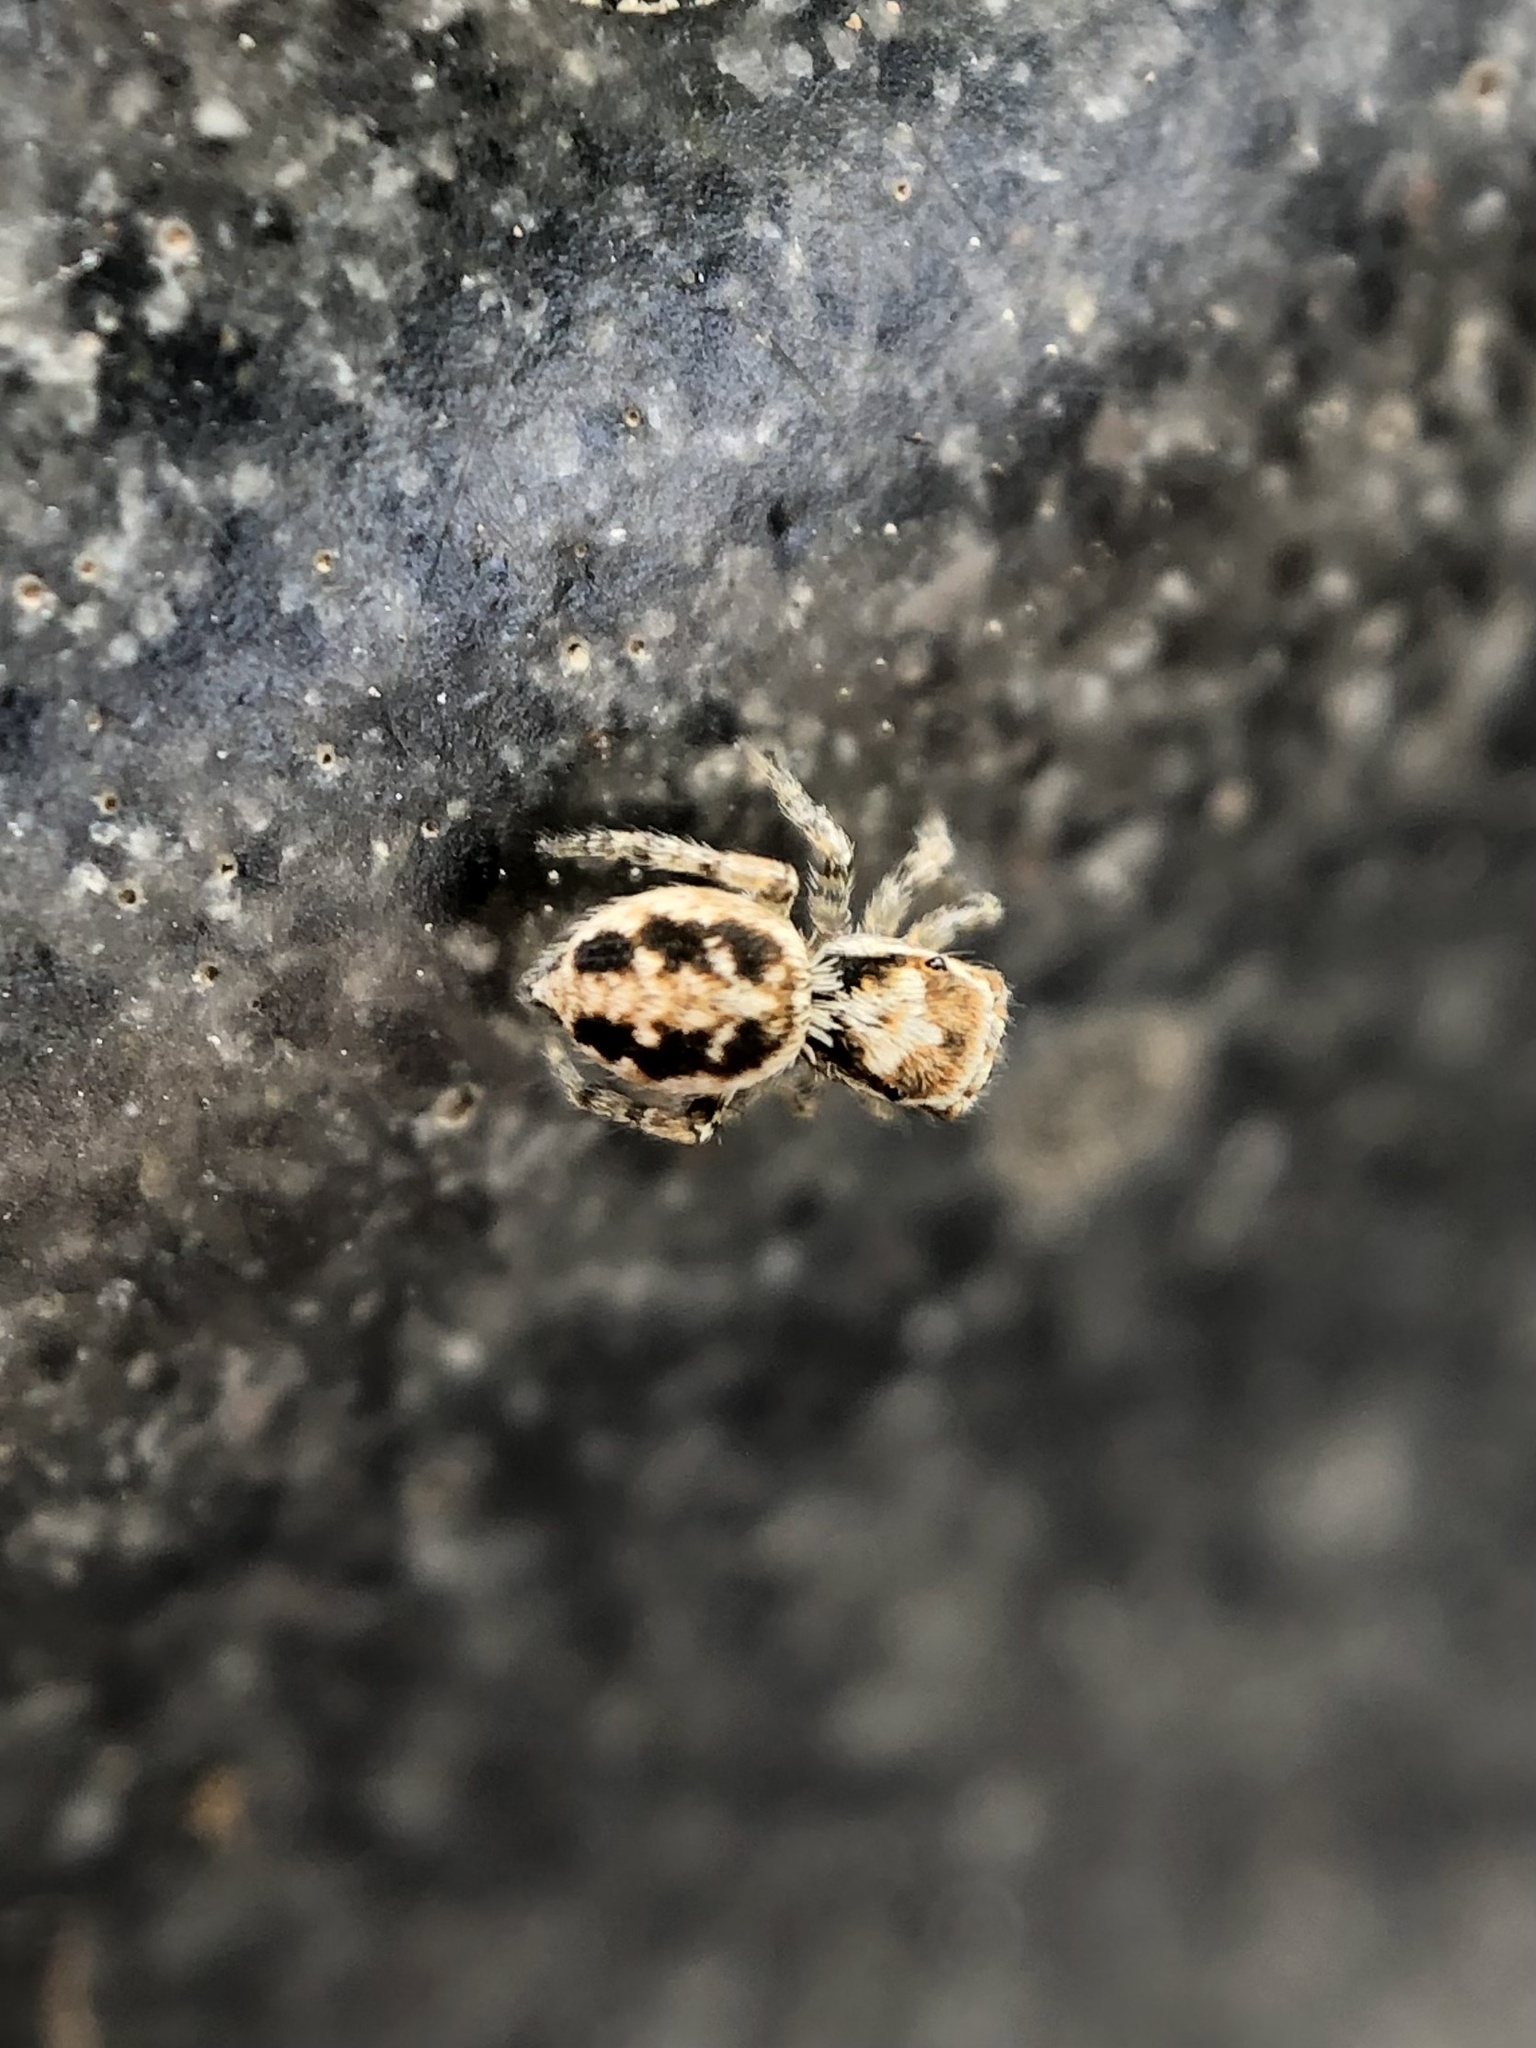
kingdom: Animalia
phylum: Arthropoda
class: Arachnida
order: Araneae
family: Salticidae
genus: Attulus
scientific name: Attulus ammophilus
